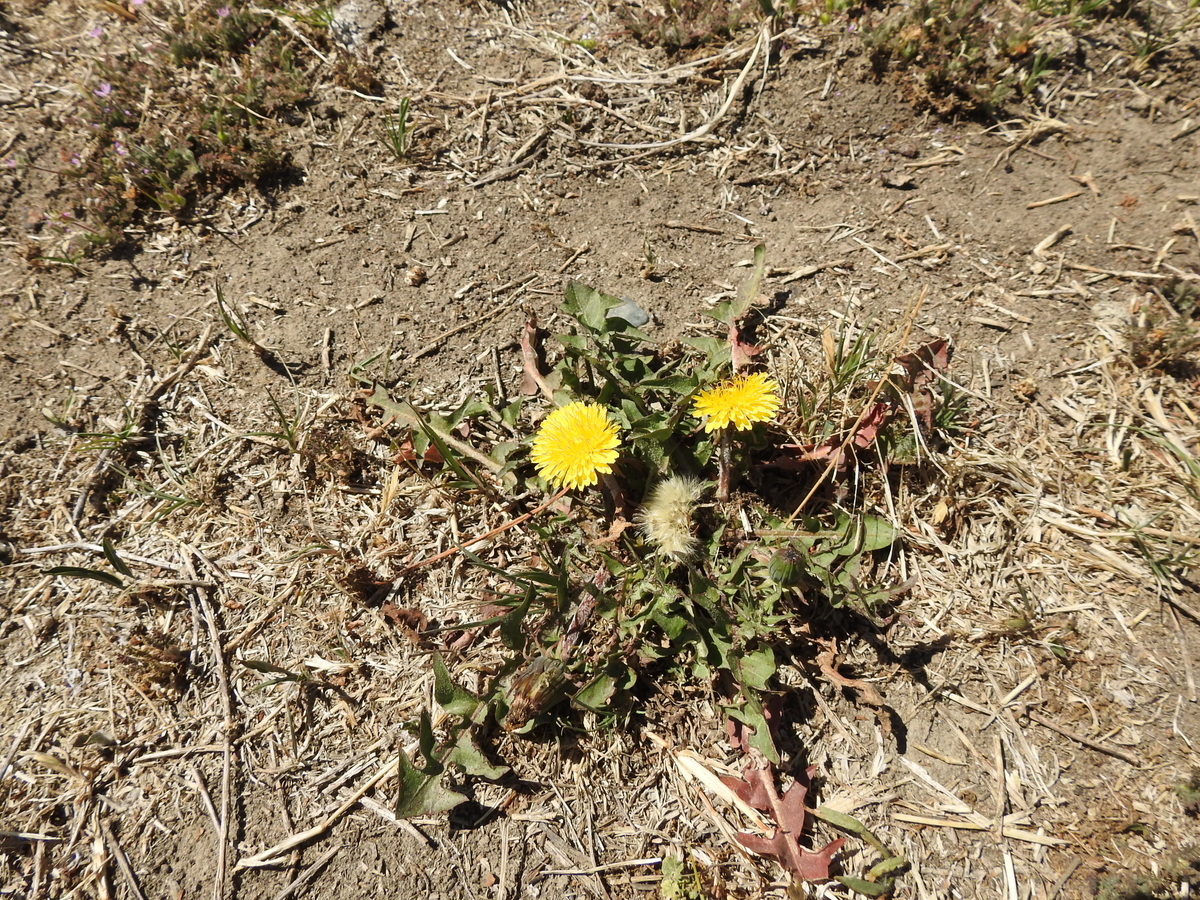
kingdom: Plantae
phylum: Tracheophyta
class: Magnoliopsida
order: Asterales
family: Asteraceae
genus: Taraxacum
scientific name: Taraxacum officinale
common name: Common dandelion
